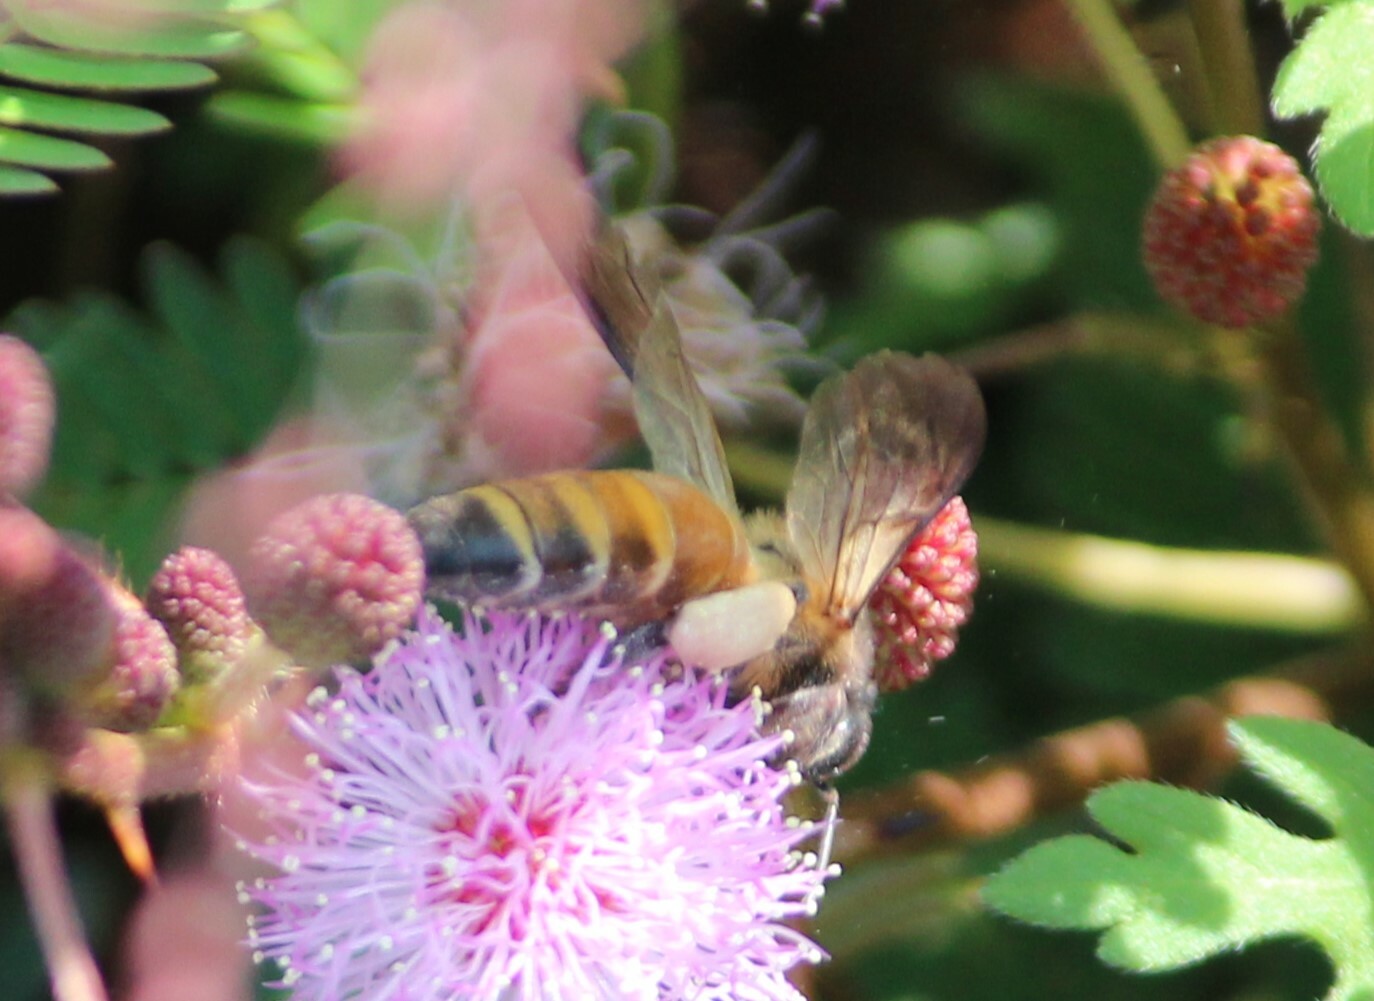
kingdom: Animalia
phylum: Arthropoda
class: Insecta
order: Hymenoptera
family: Apidae
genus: Apis
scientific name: Apis dorsata
